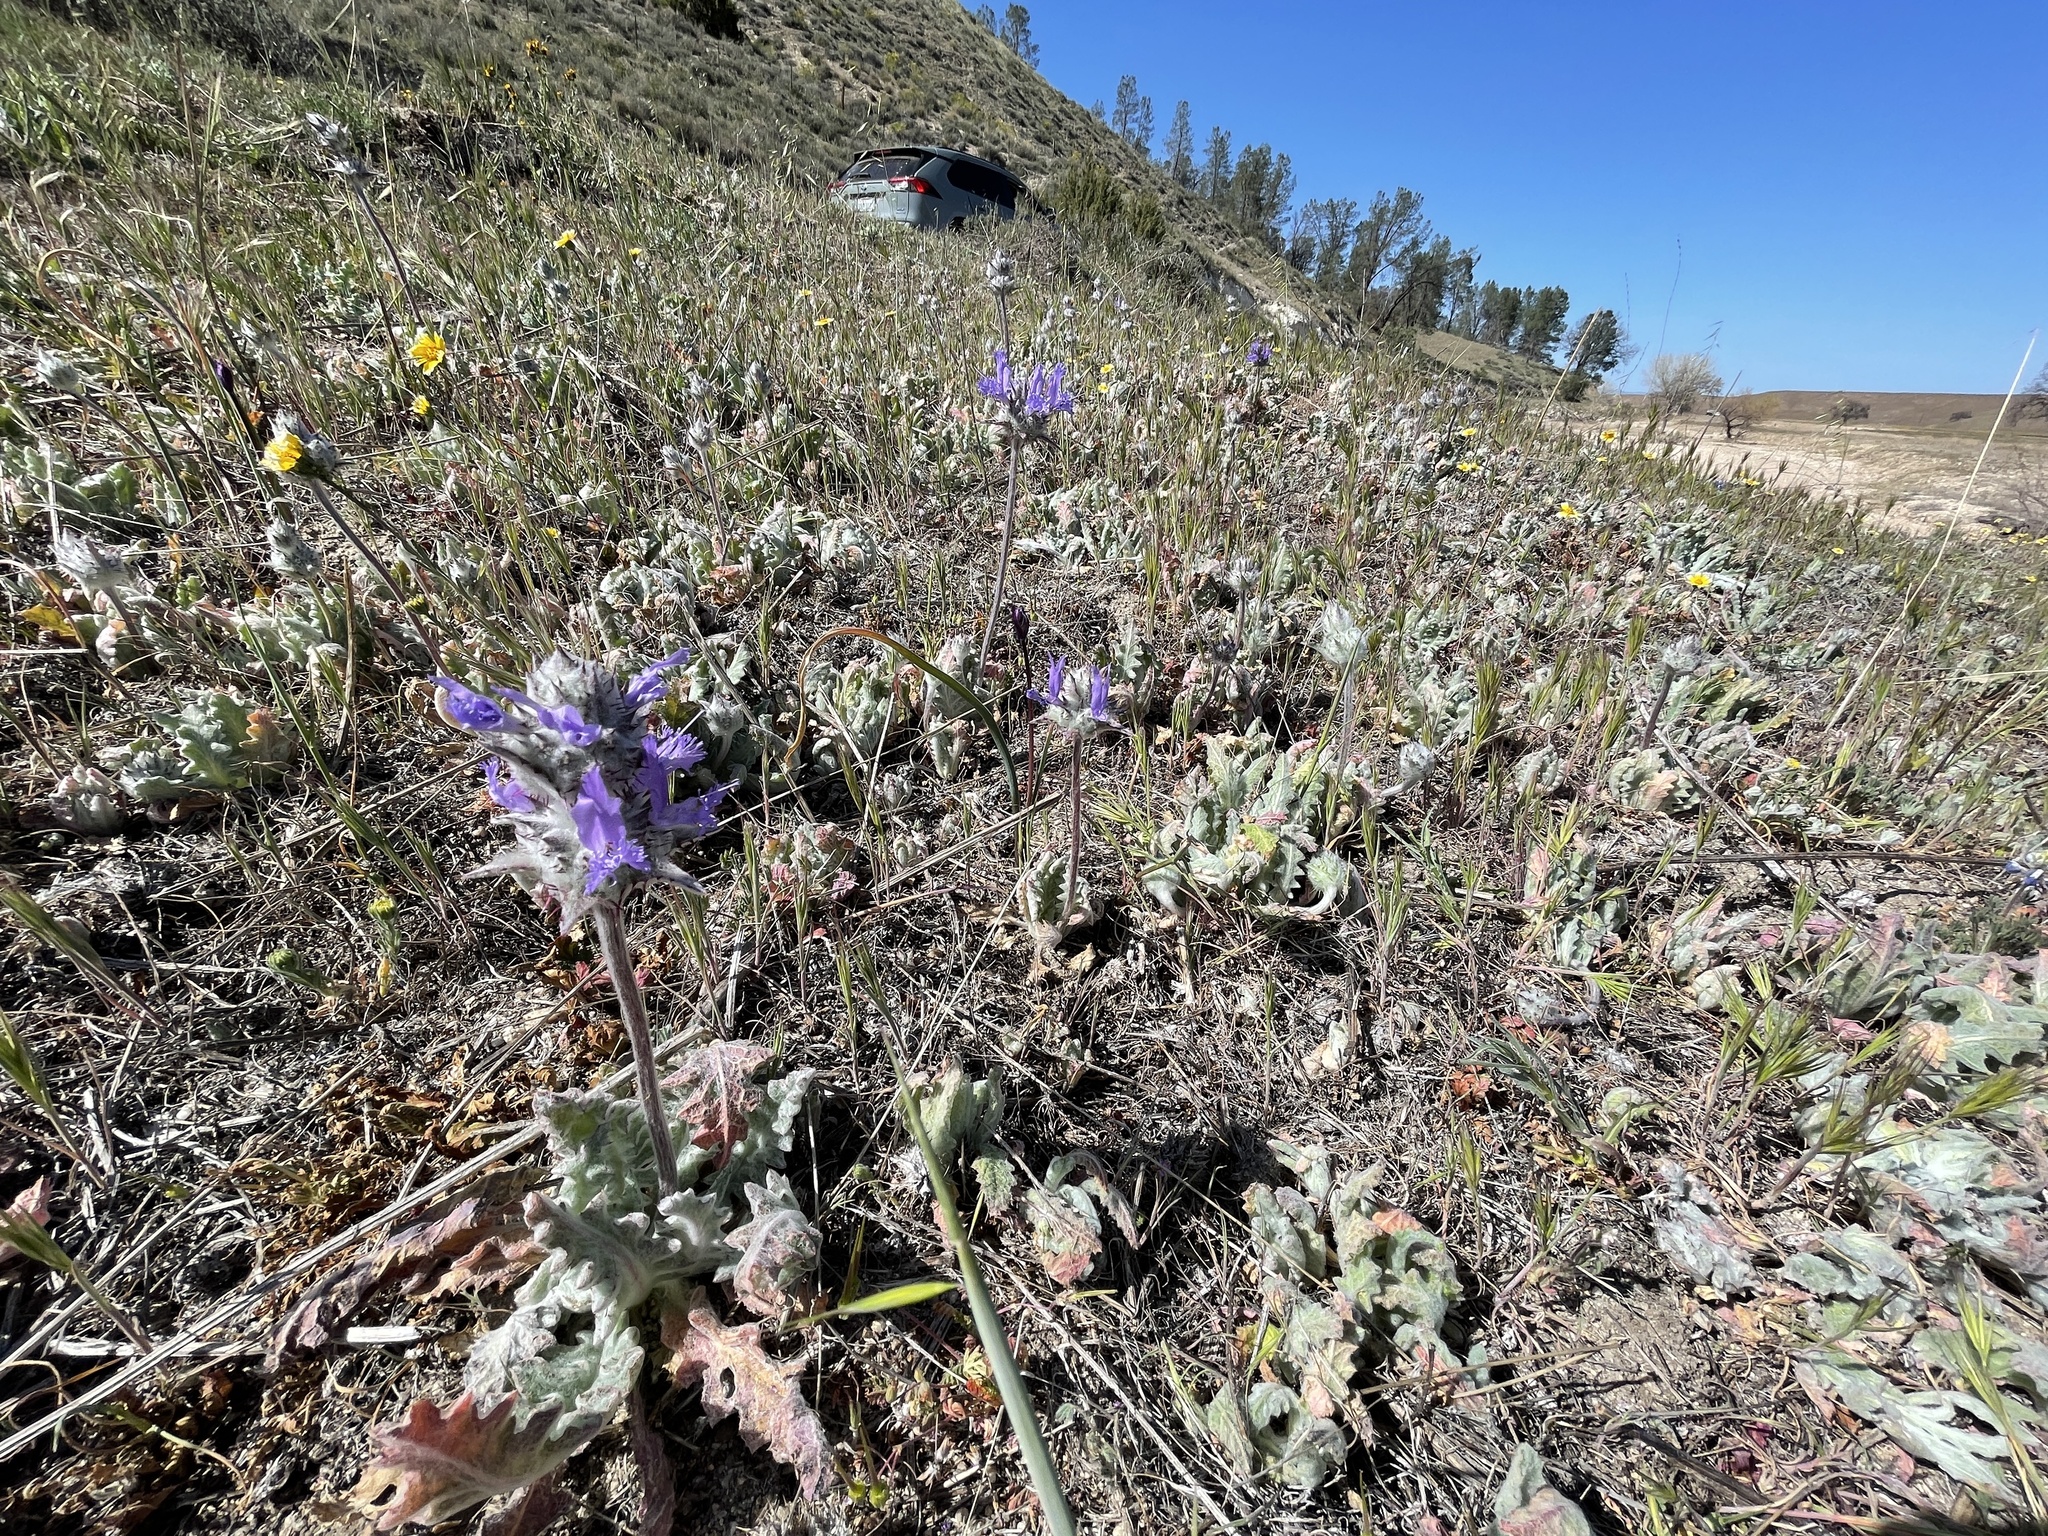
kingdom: Plantae
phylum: Tracheophyta
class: Magnoliopsida
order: Lamiales
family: Lamiaceae
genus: Salvia
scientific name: Salvia carduacea
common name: Thistle sage
